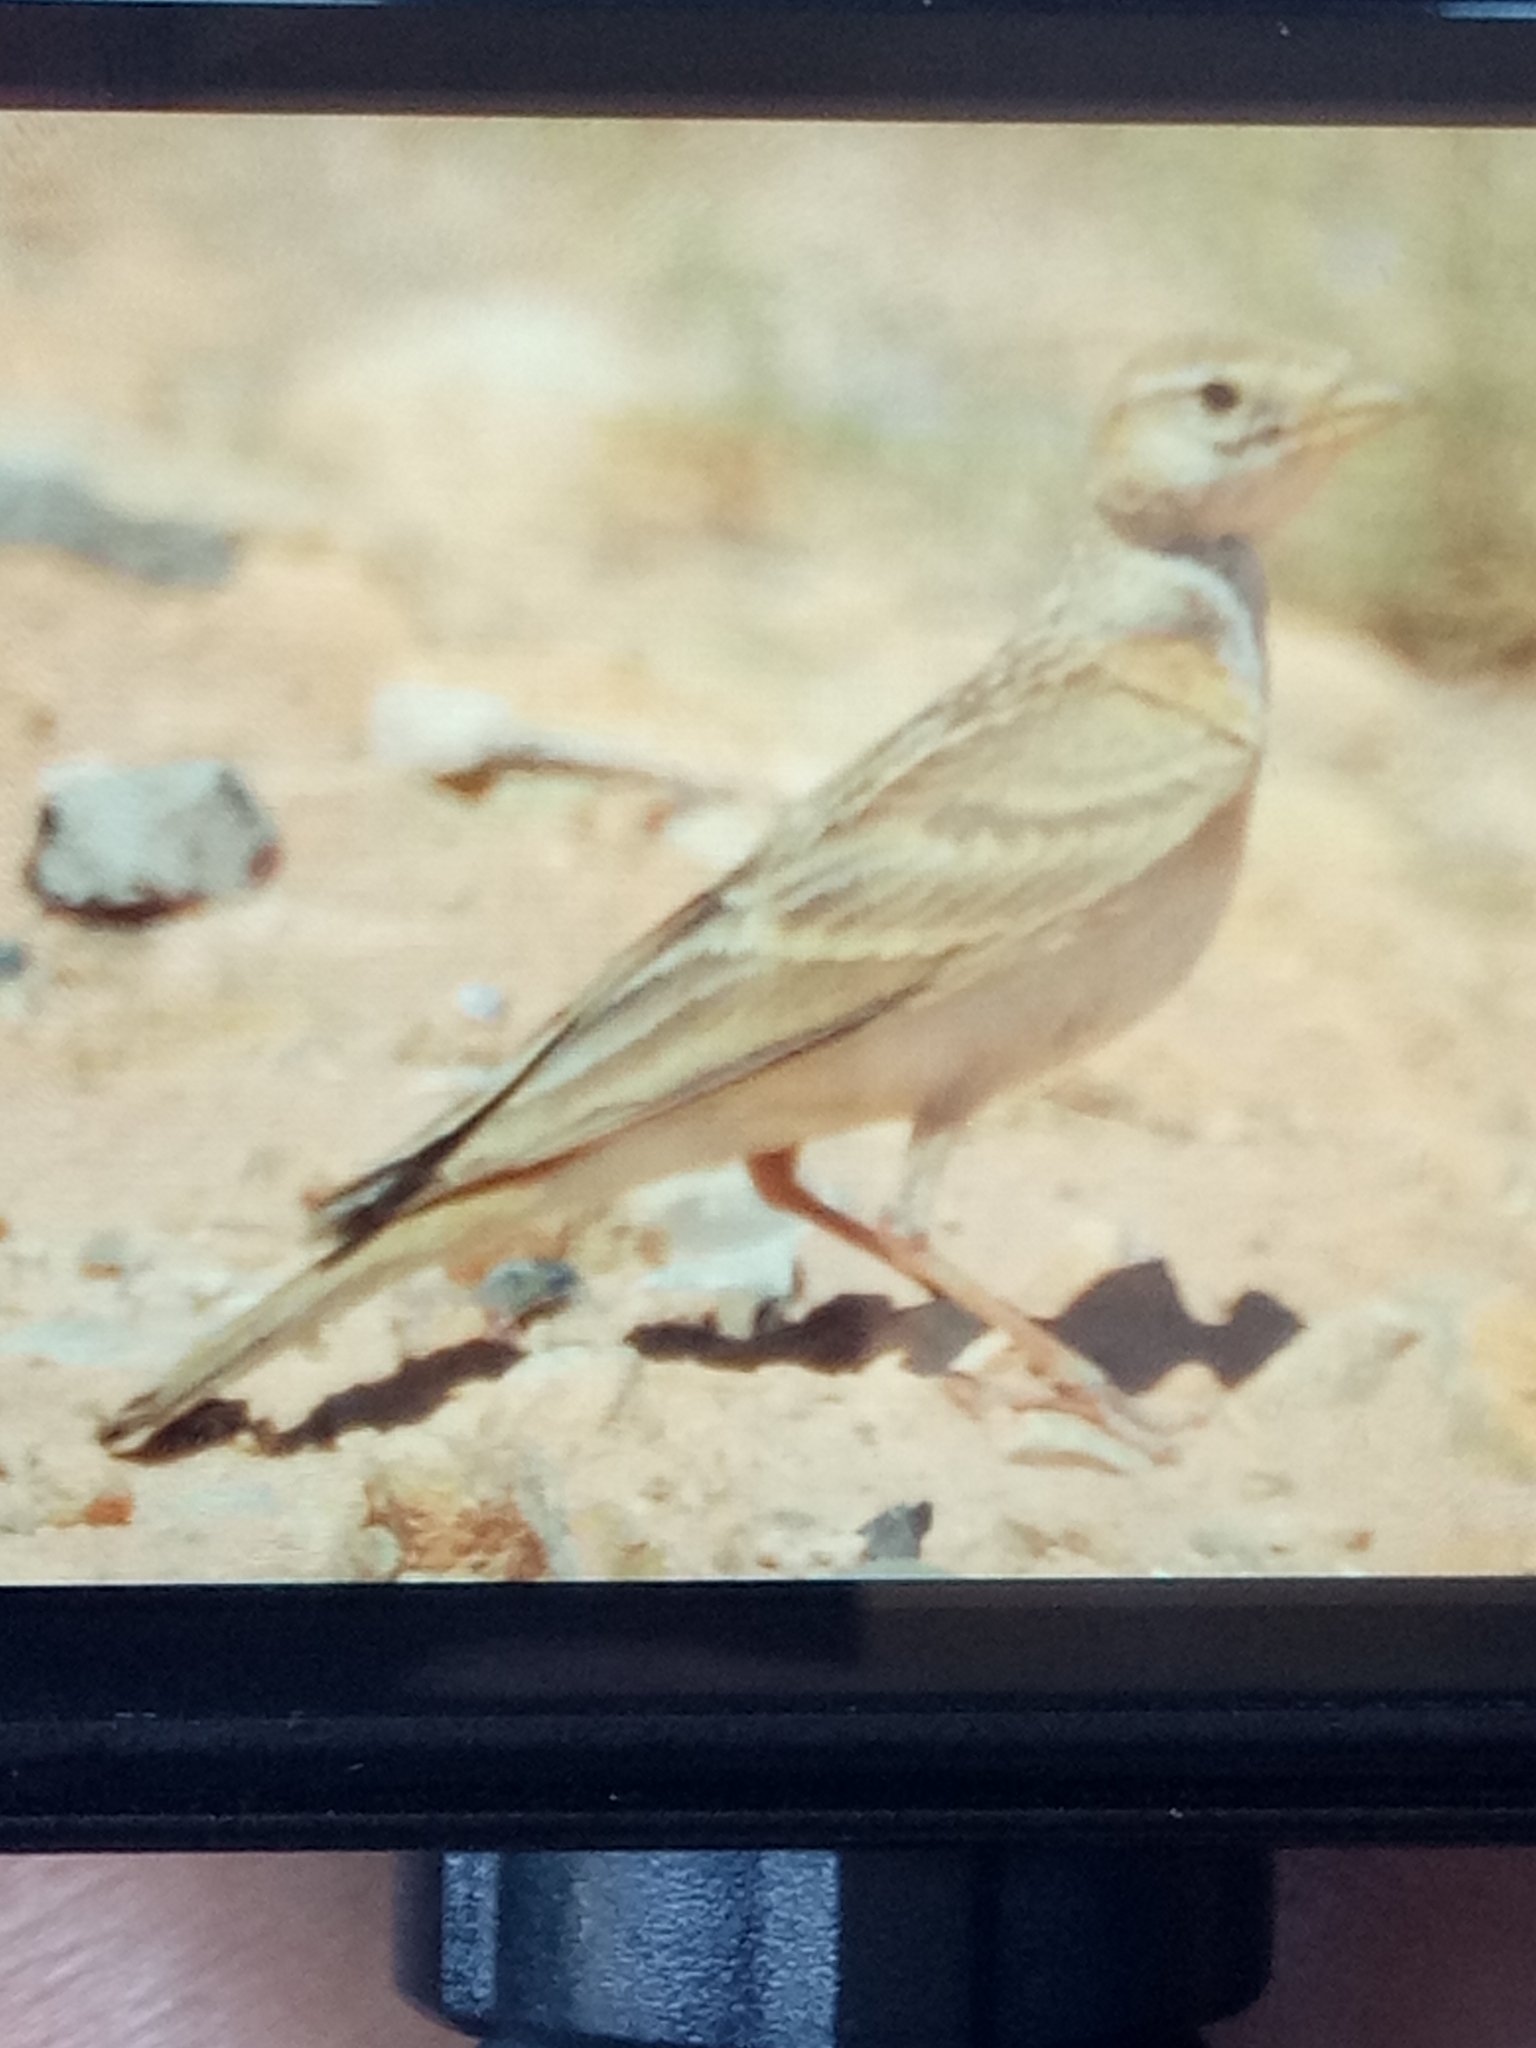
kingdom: Animalia
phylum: Chordata
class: Aves
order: Passeriformes
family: Alaudidae
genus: Calandrella
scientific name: Calandrella brachydactyla
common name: Greater short-toed lark
